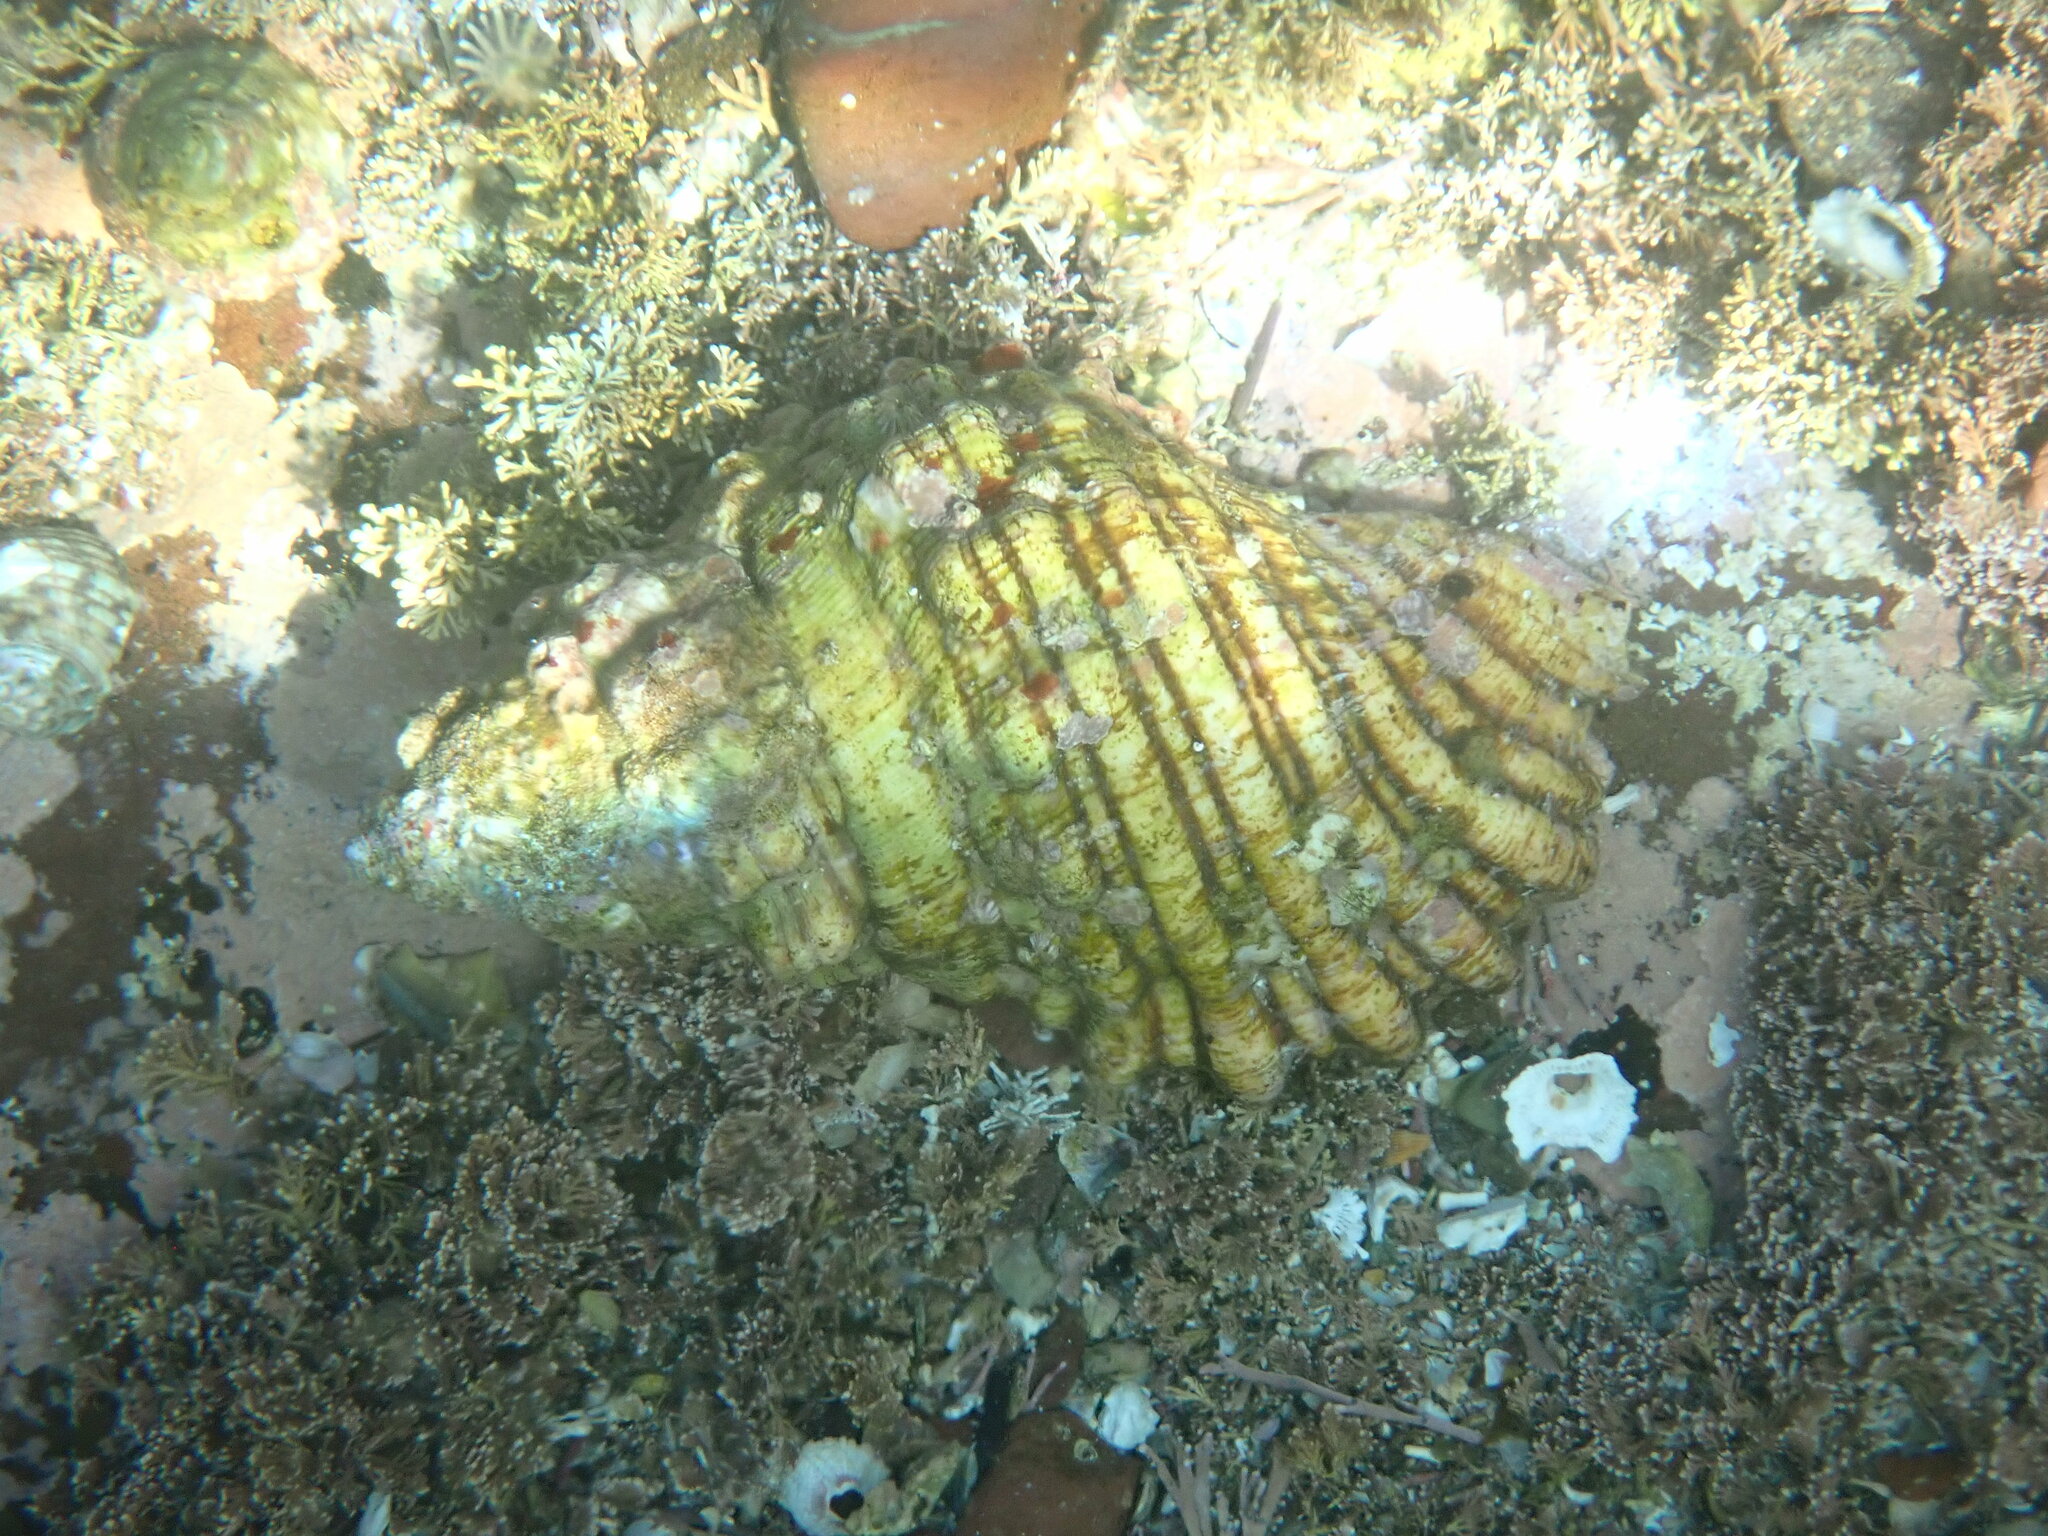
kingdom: Animalia
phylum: Mollusca
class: Gastropoda
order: Littorinimorpha
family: Cymatiidae
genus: Cabestana
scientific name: Cabestana spengleri
